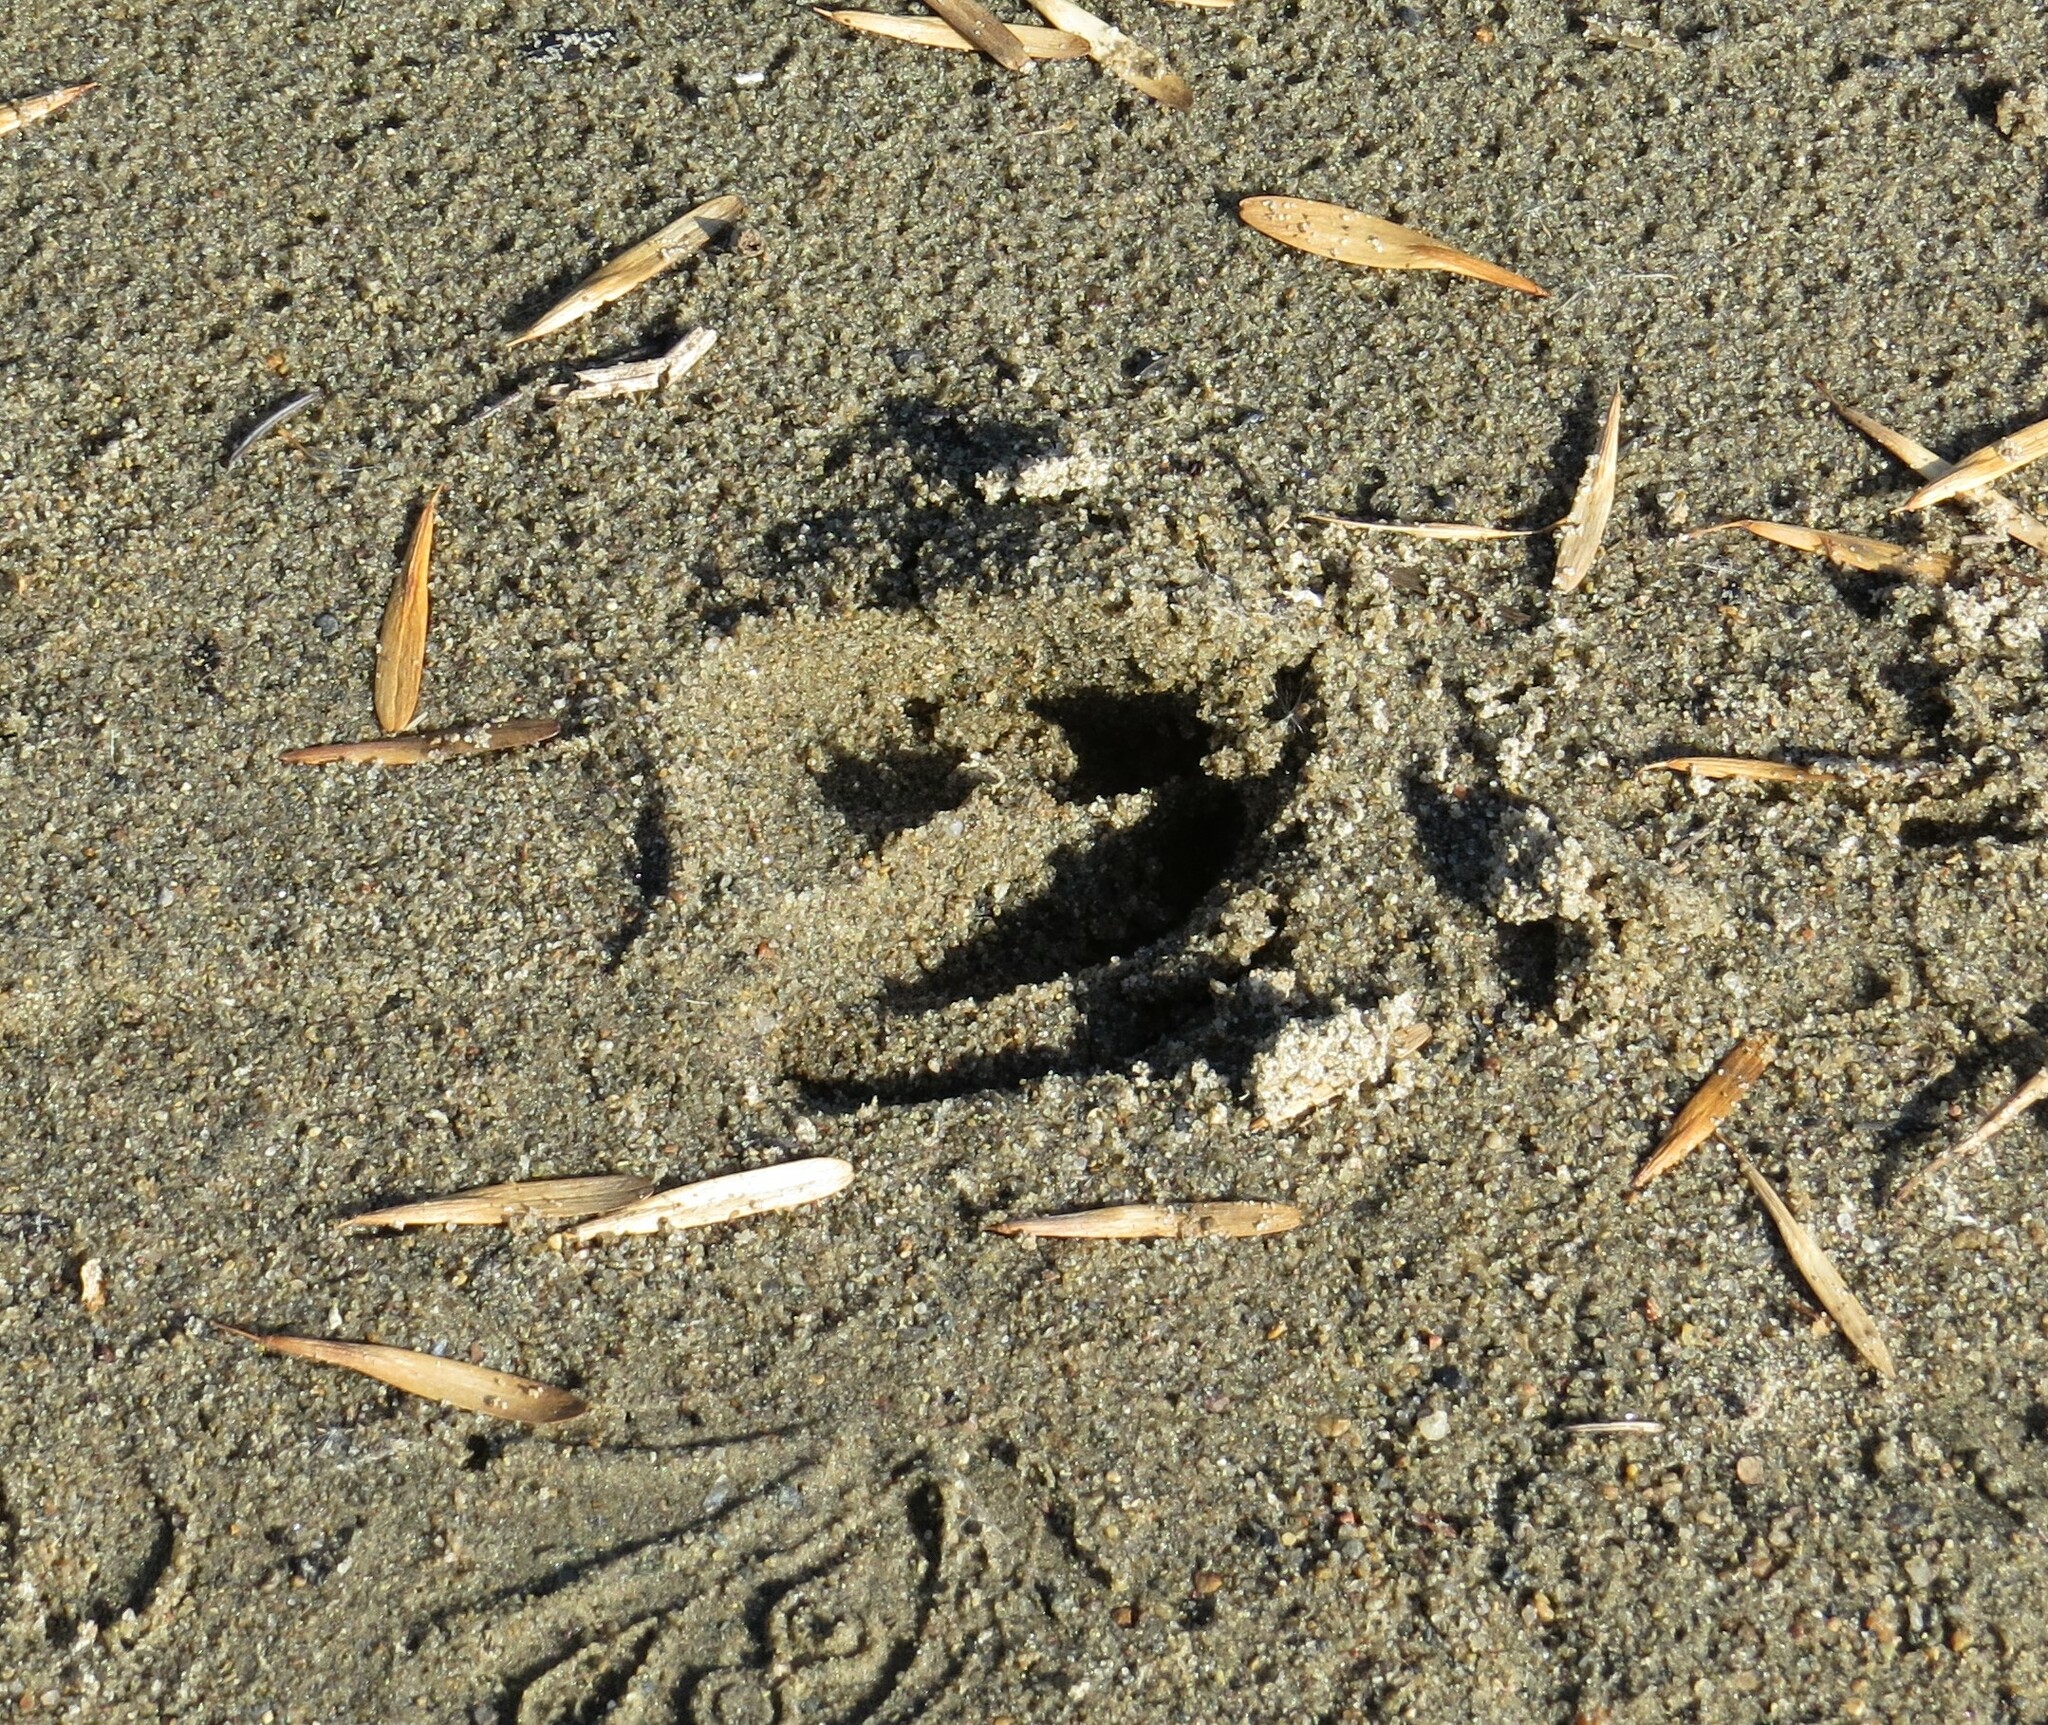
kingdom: Animalia
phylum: Chordata
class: Mammalia
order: Artiodactyla
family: Cervidae
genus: Odocoileus
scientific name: Odocoileus virginianus
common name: White-tailed deer
